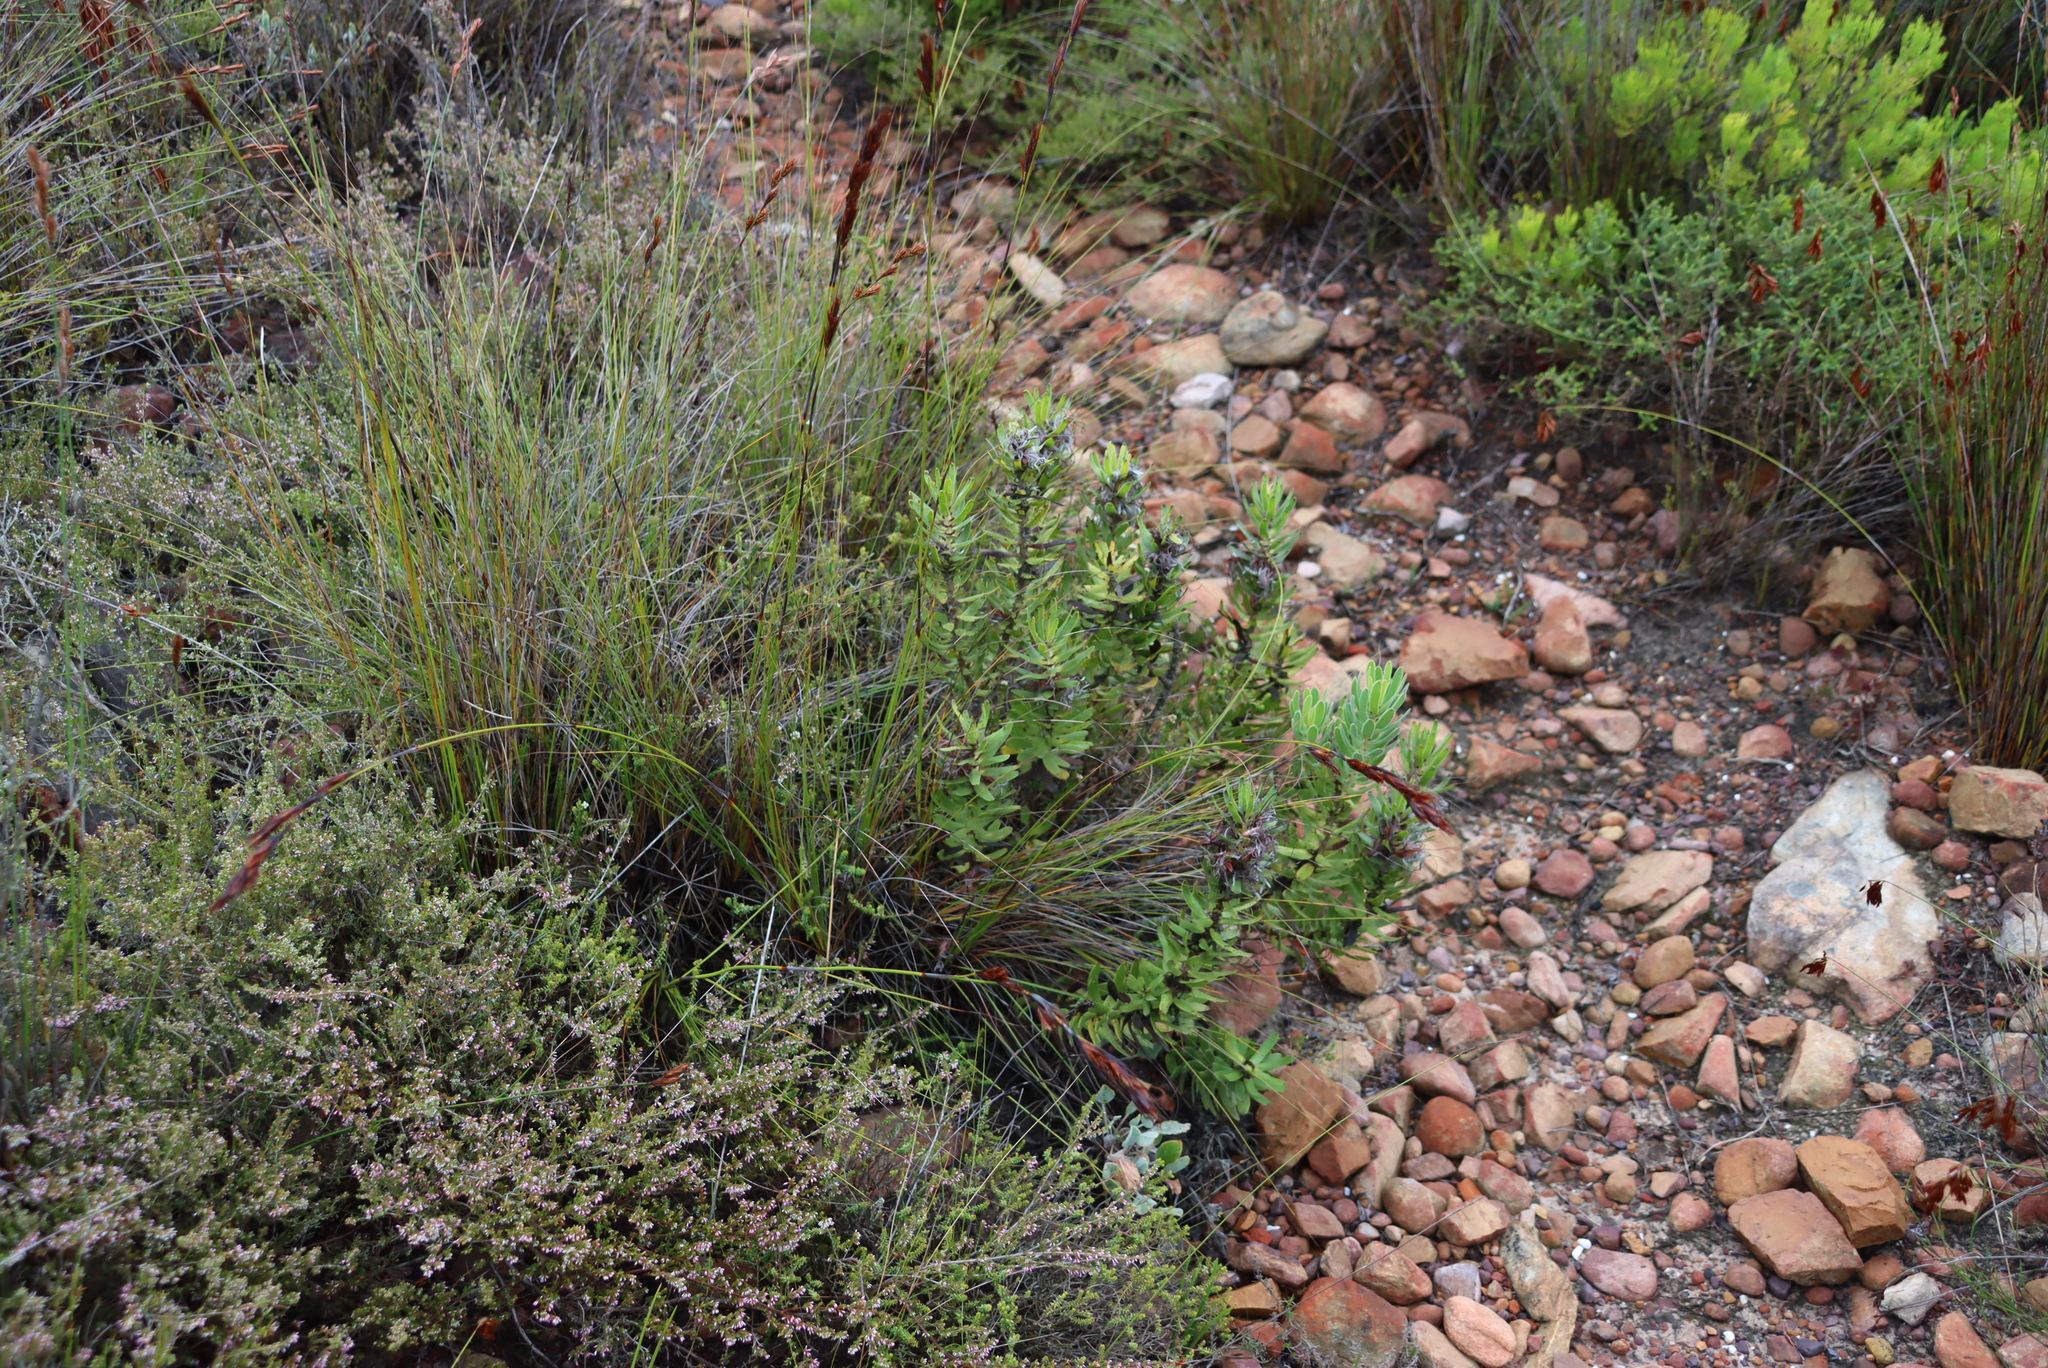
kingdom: Plantae
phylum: Tracheophyta
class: Magnoliopsida
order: Proteales
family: Proteaceae
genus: Mimetes
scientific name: Mimetes cucullatus
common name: Common pagoda
